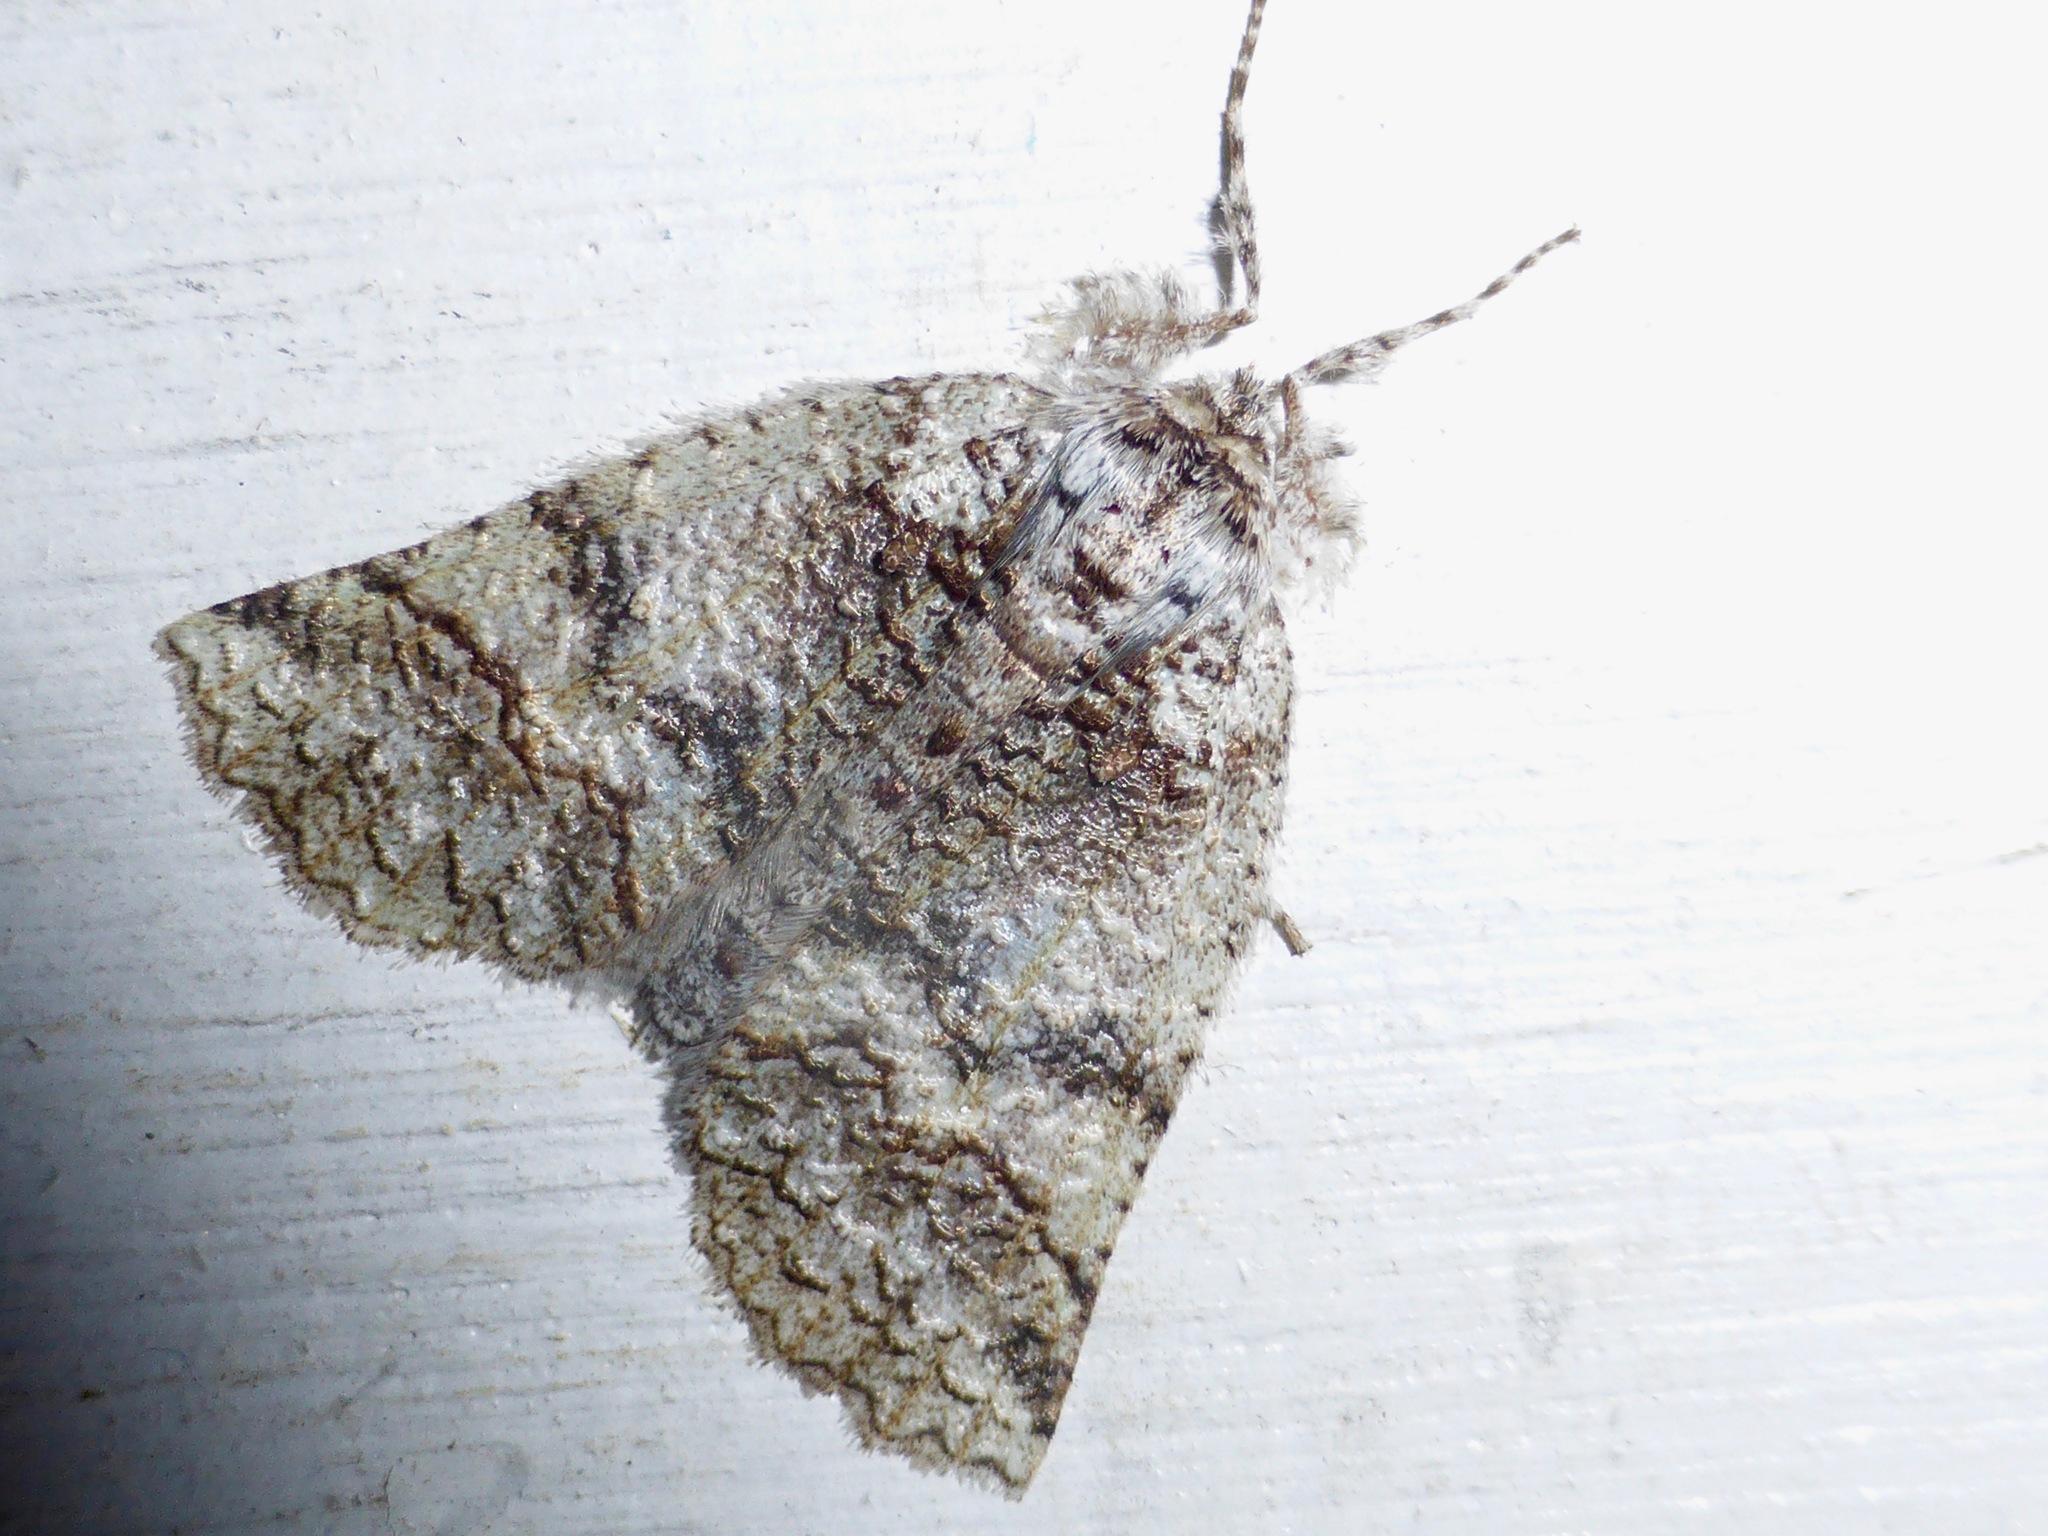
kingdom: Animalia
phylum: Arthropoda
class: Insecta
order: Lepidoptera
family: Geometridae
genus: Declana
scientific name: Declana floccosa
